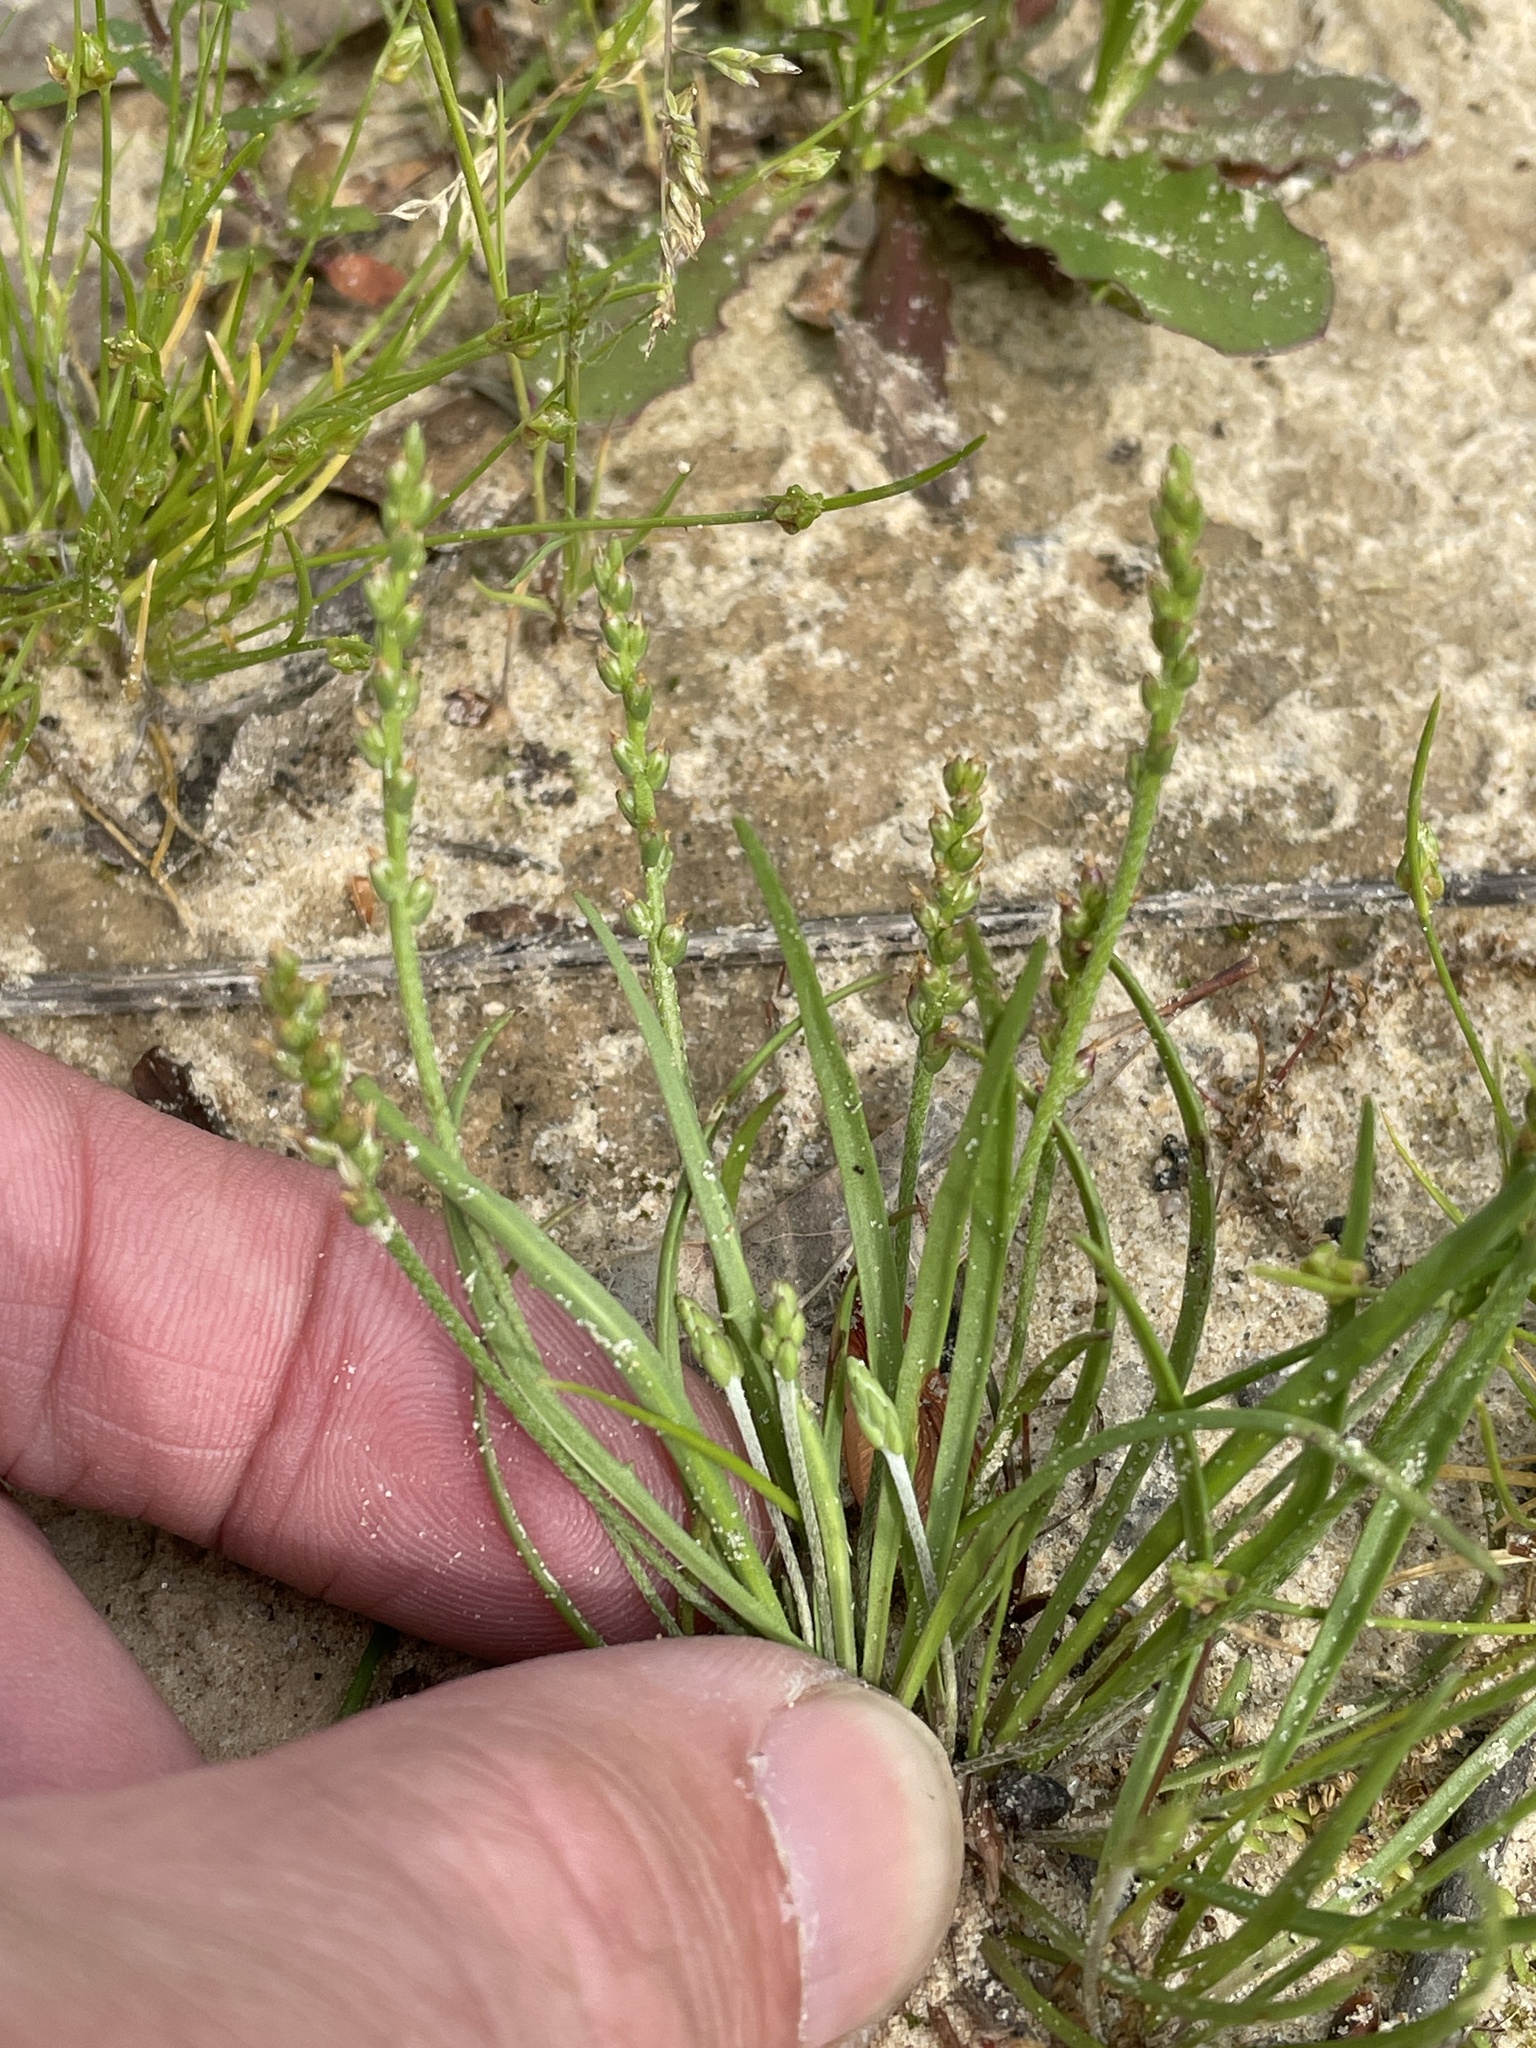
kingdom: Plantae
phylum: Tracheophyta
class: Magnoliopsida
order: Lamiales
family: Plantaginaceae
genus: Plantago
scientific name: Plantago heterophylla
